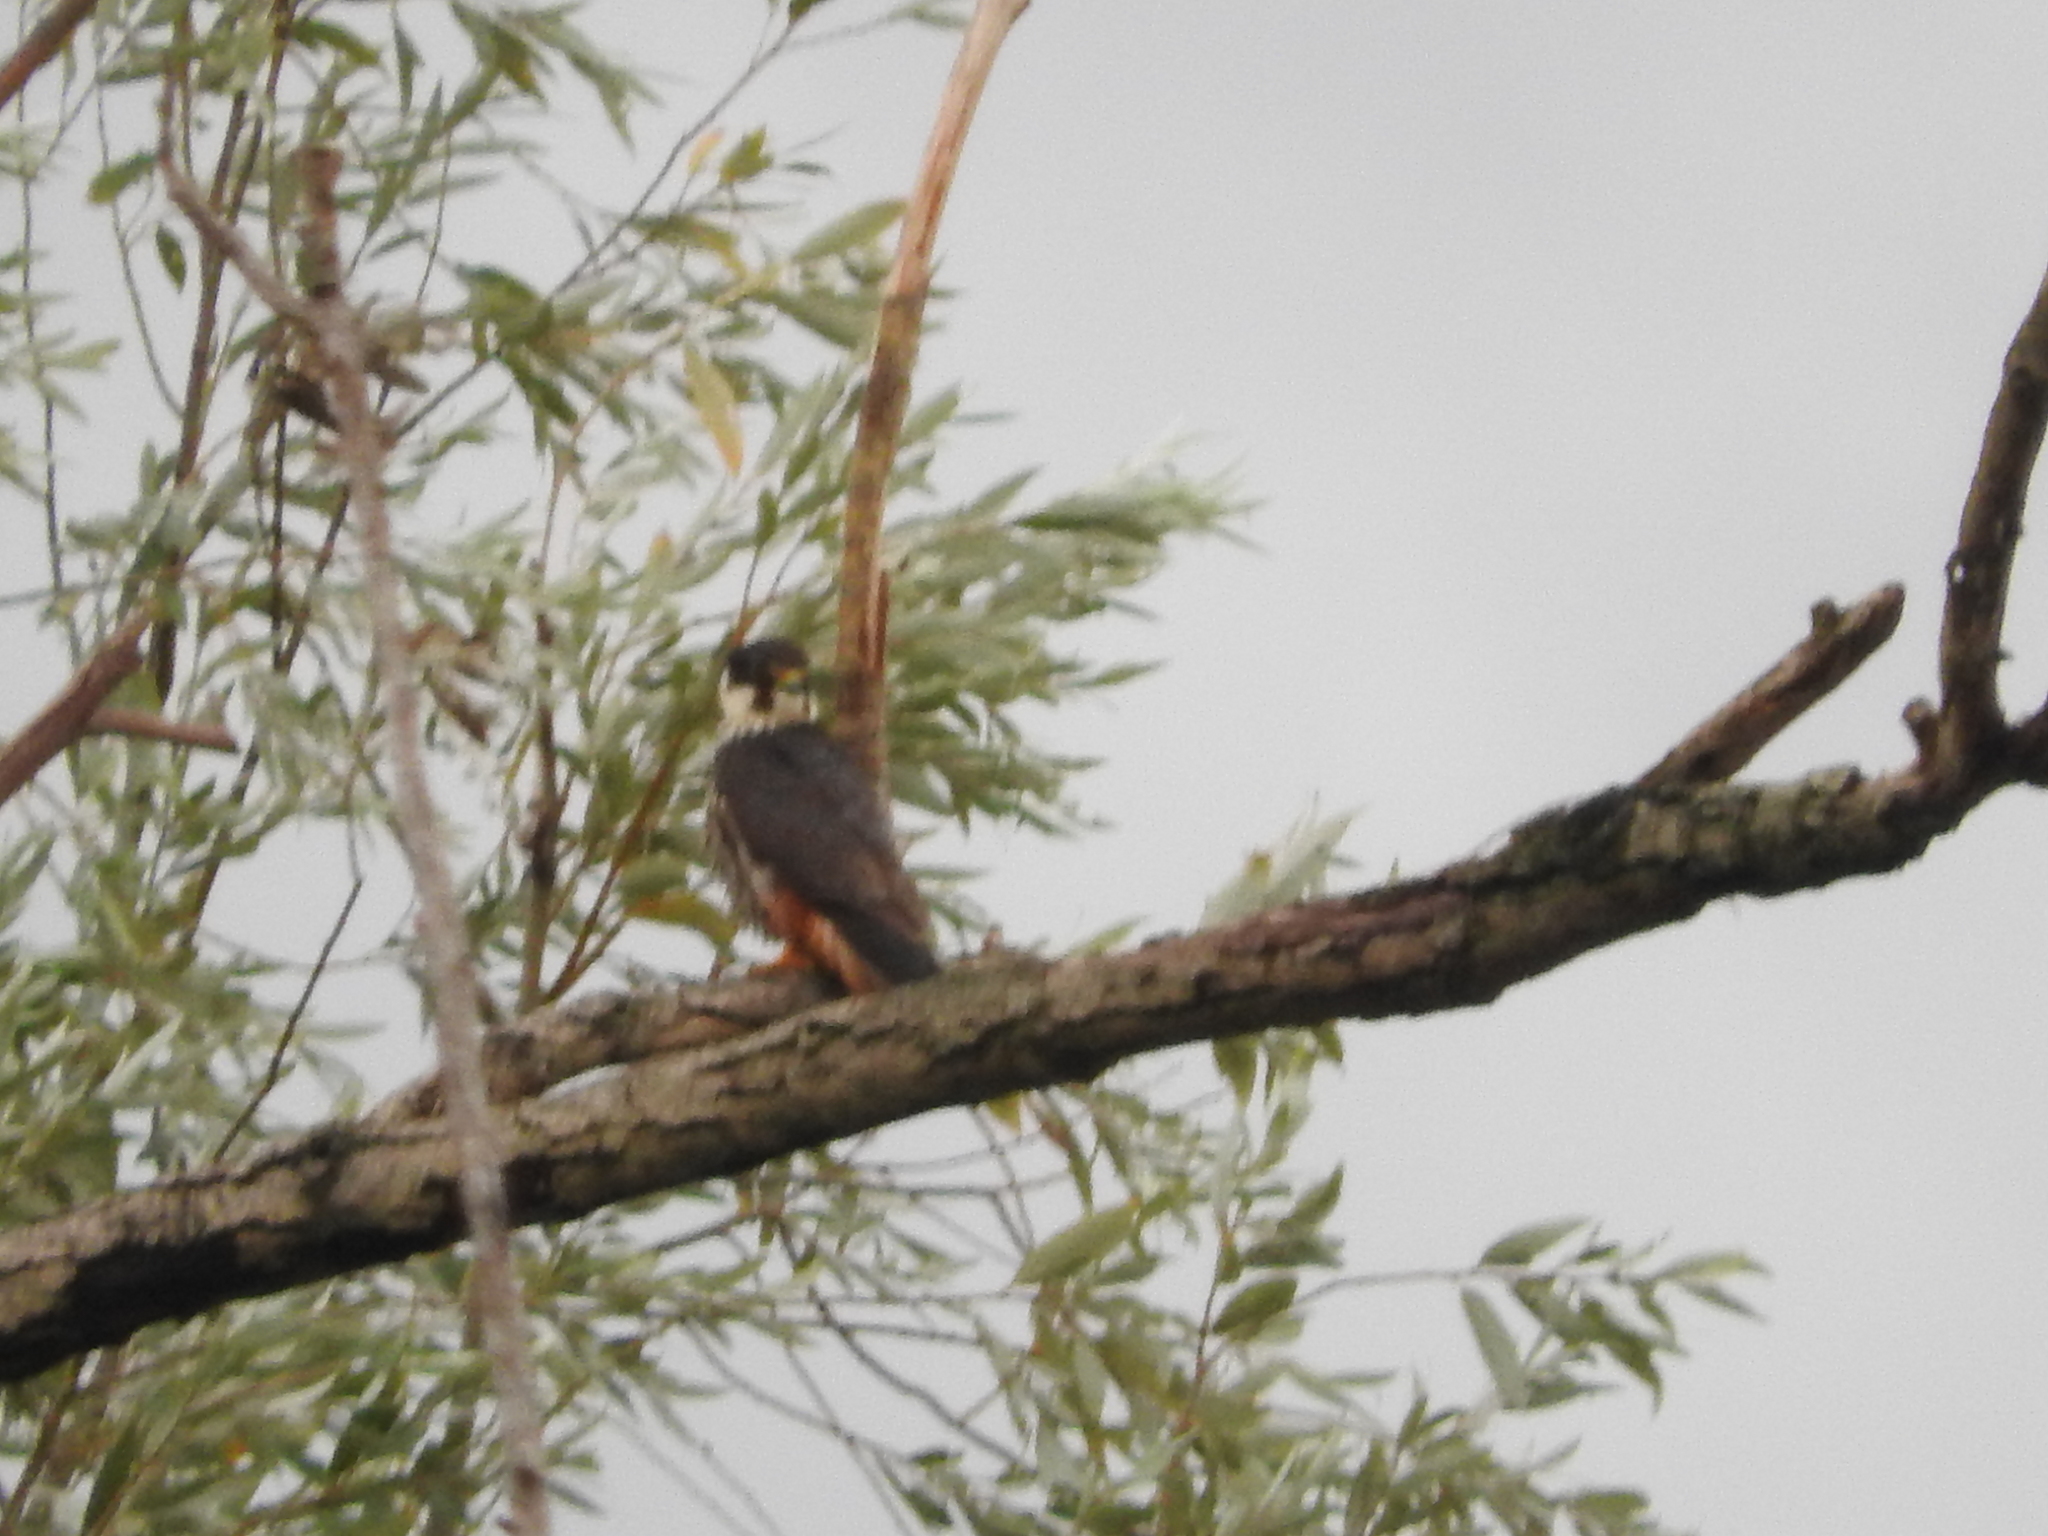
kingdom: Animalia
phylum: Chordata
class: Aves
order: Falconiformes
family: Falconidae
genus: Falco
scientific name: Falco subbuteo
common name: Eurasian hobby
